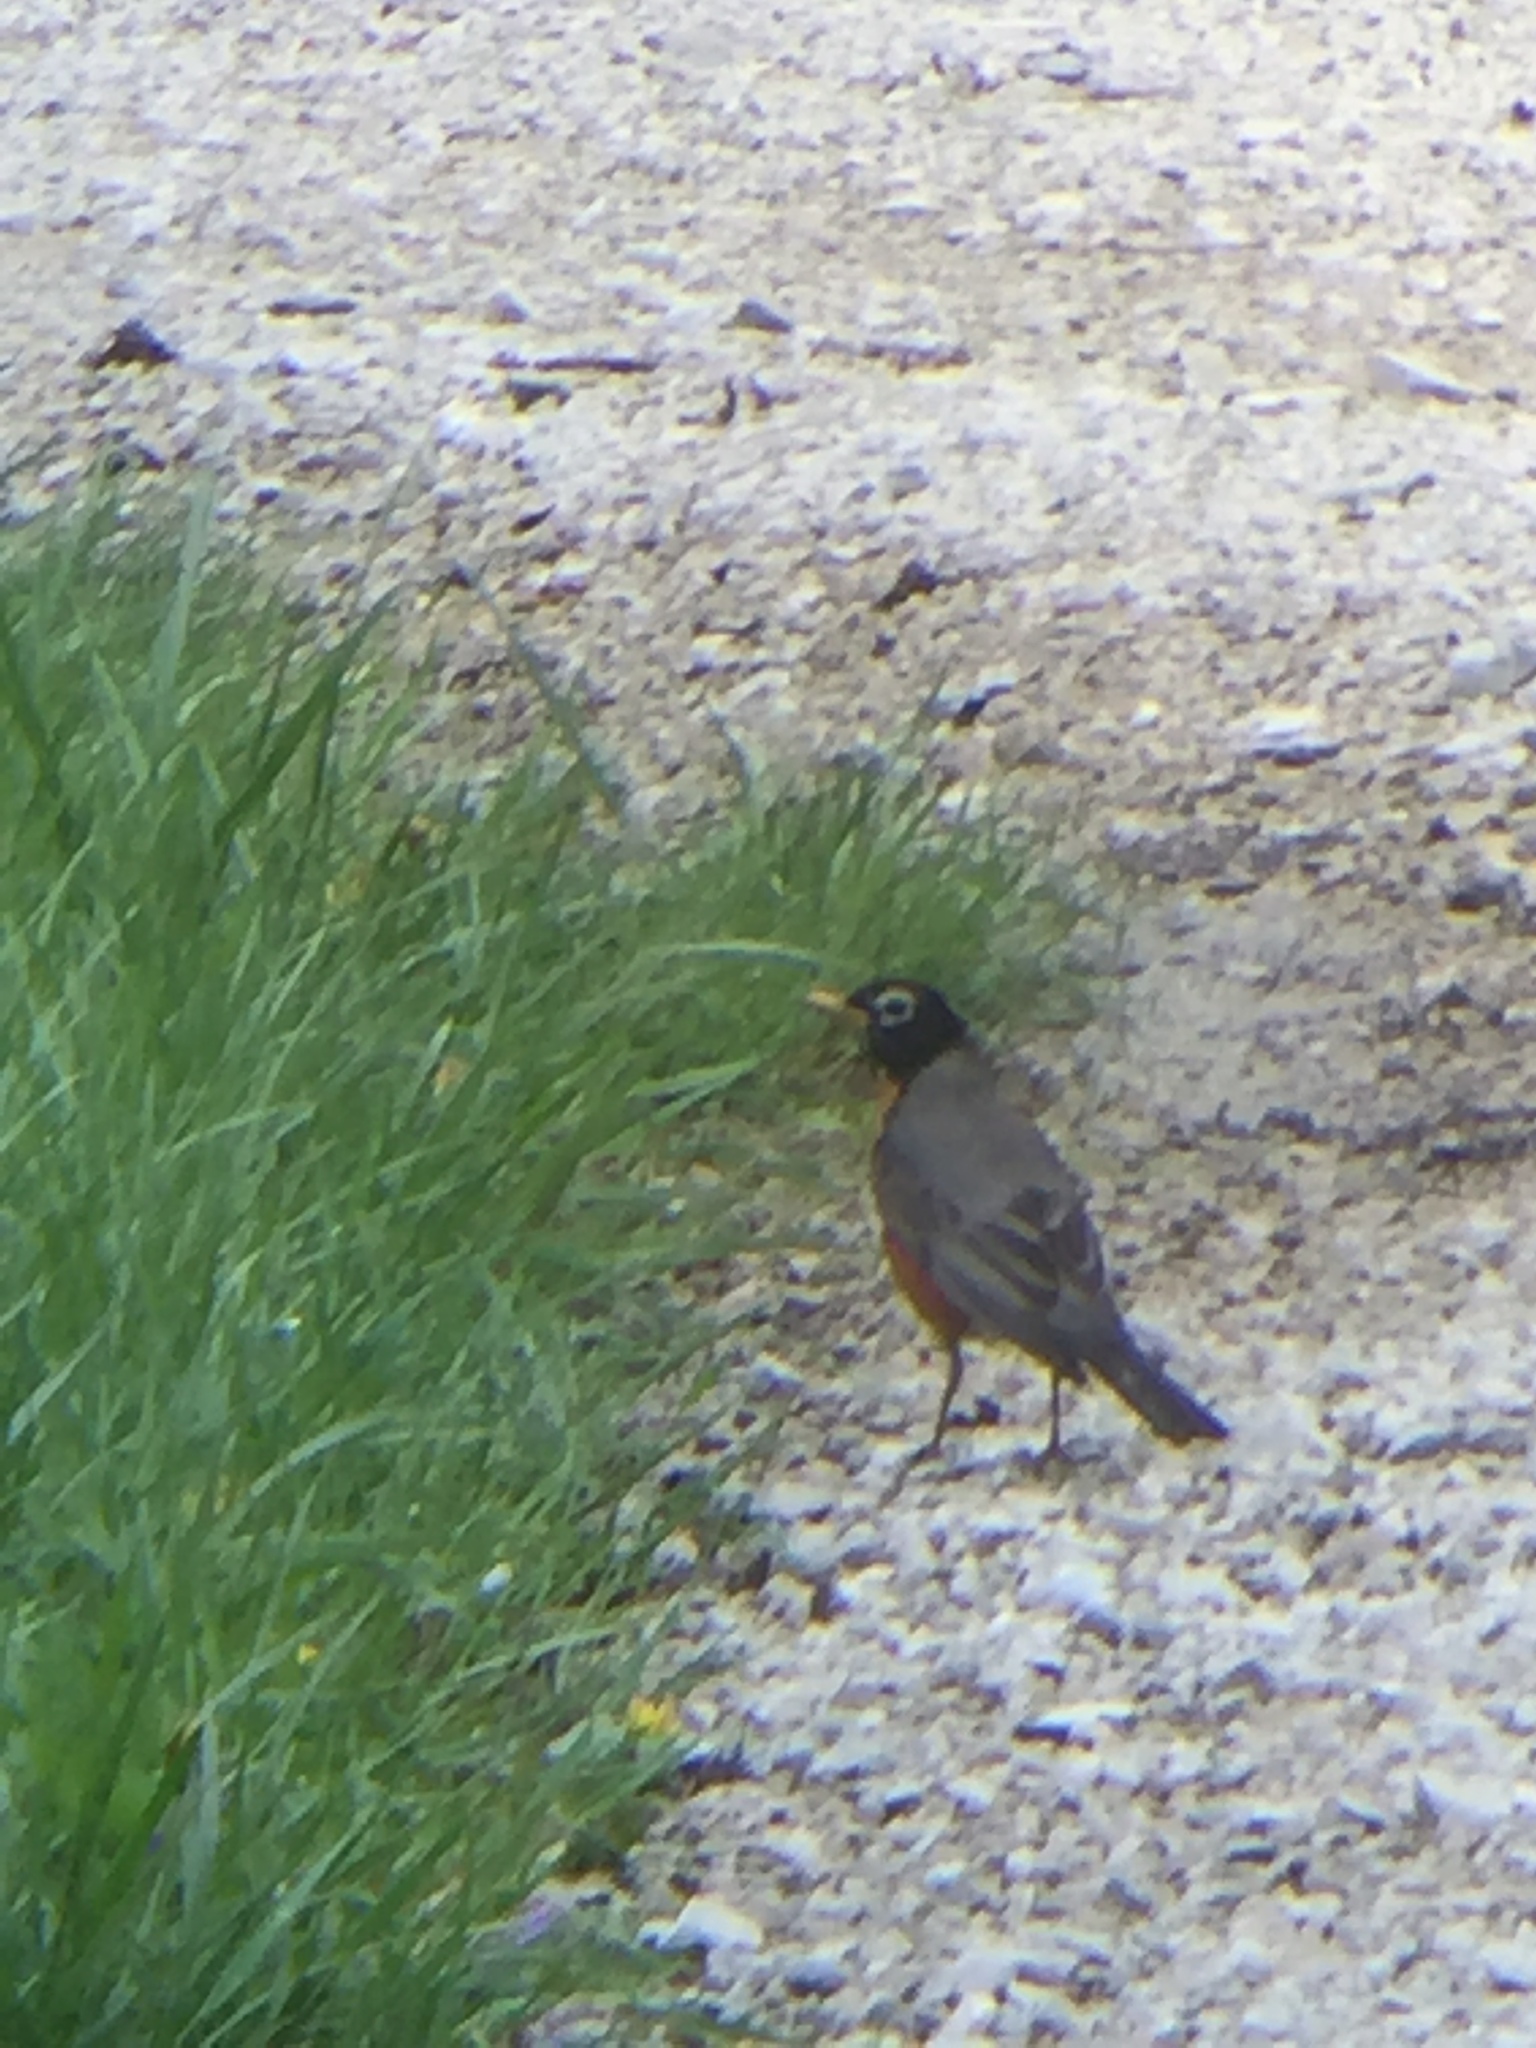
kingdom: Animalia
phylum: Chordata
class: Aves
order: Passeriformes
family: Turdidae
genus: Turdus
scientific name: Turdus migratorius
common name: American robin
